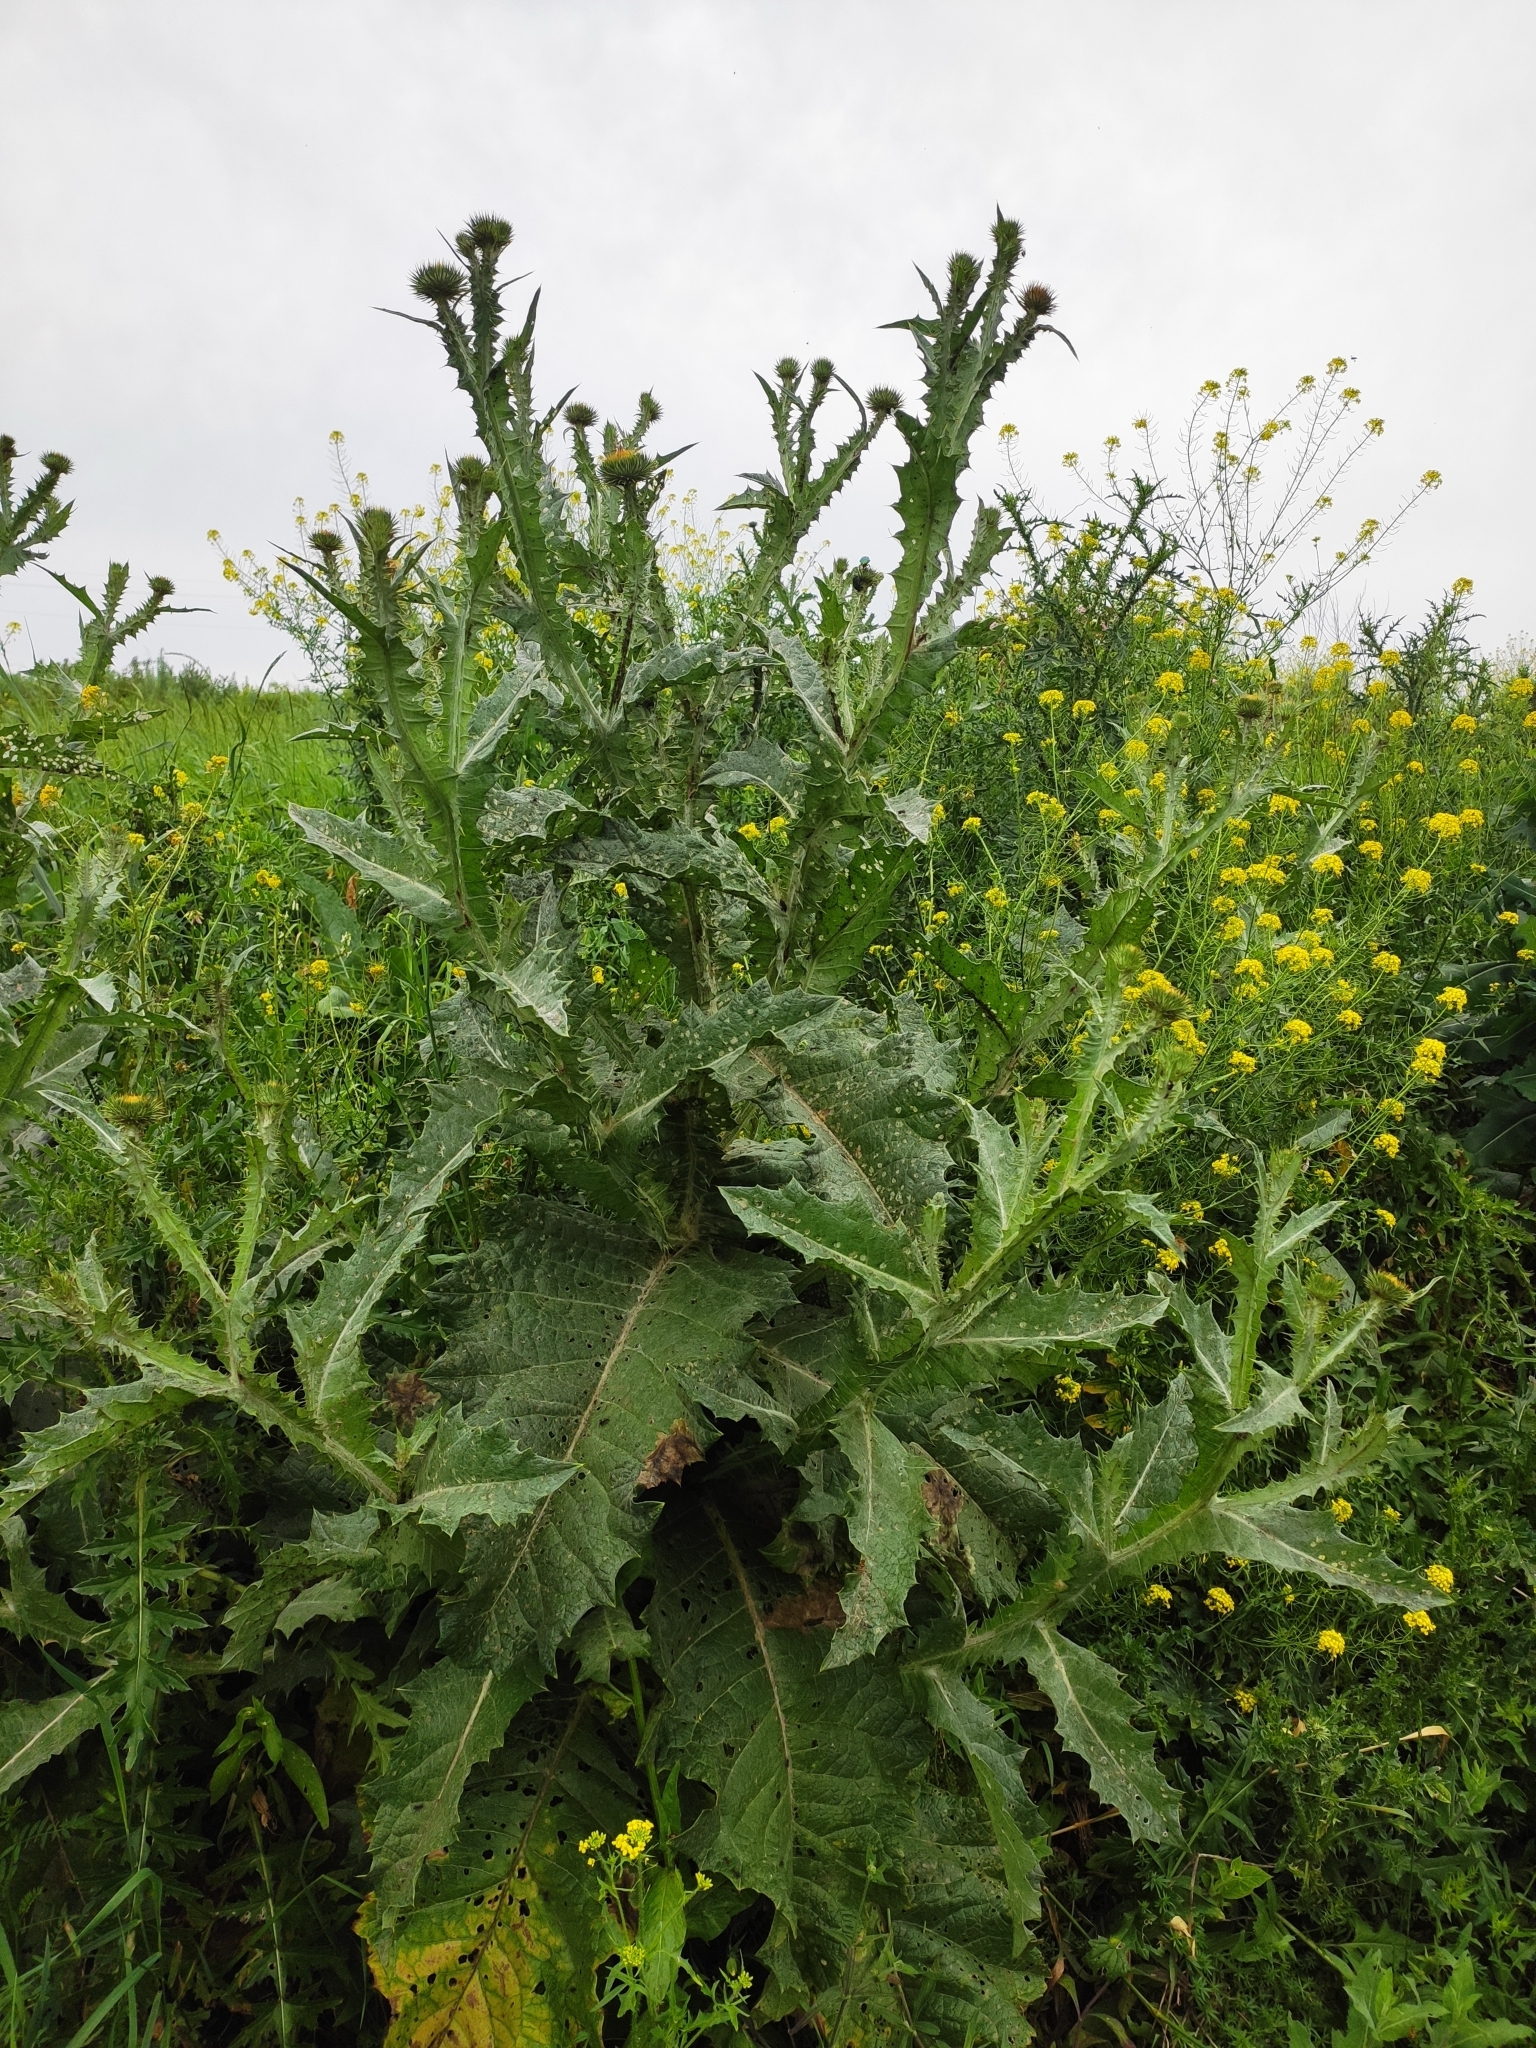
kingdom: Plantae
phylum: Tracheophyta
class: Magnoliopsida
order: Asterales
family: Asteraceae
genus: Onopordum
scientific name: Onopordum acanthium
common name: Scotch thistle
